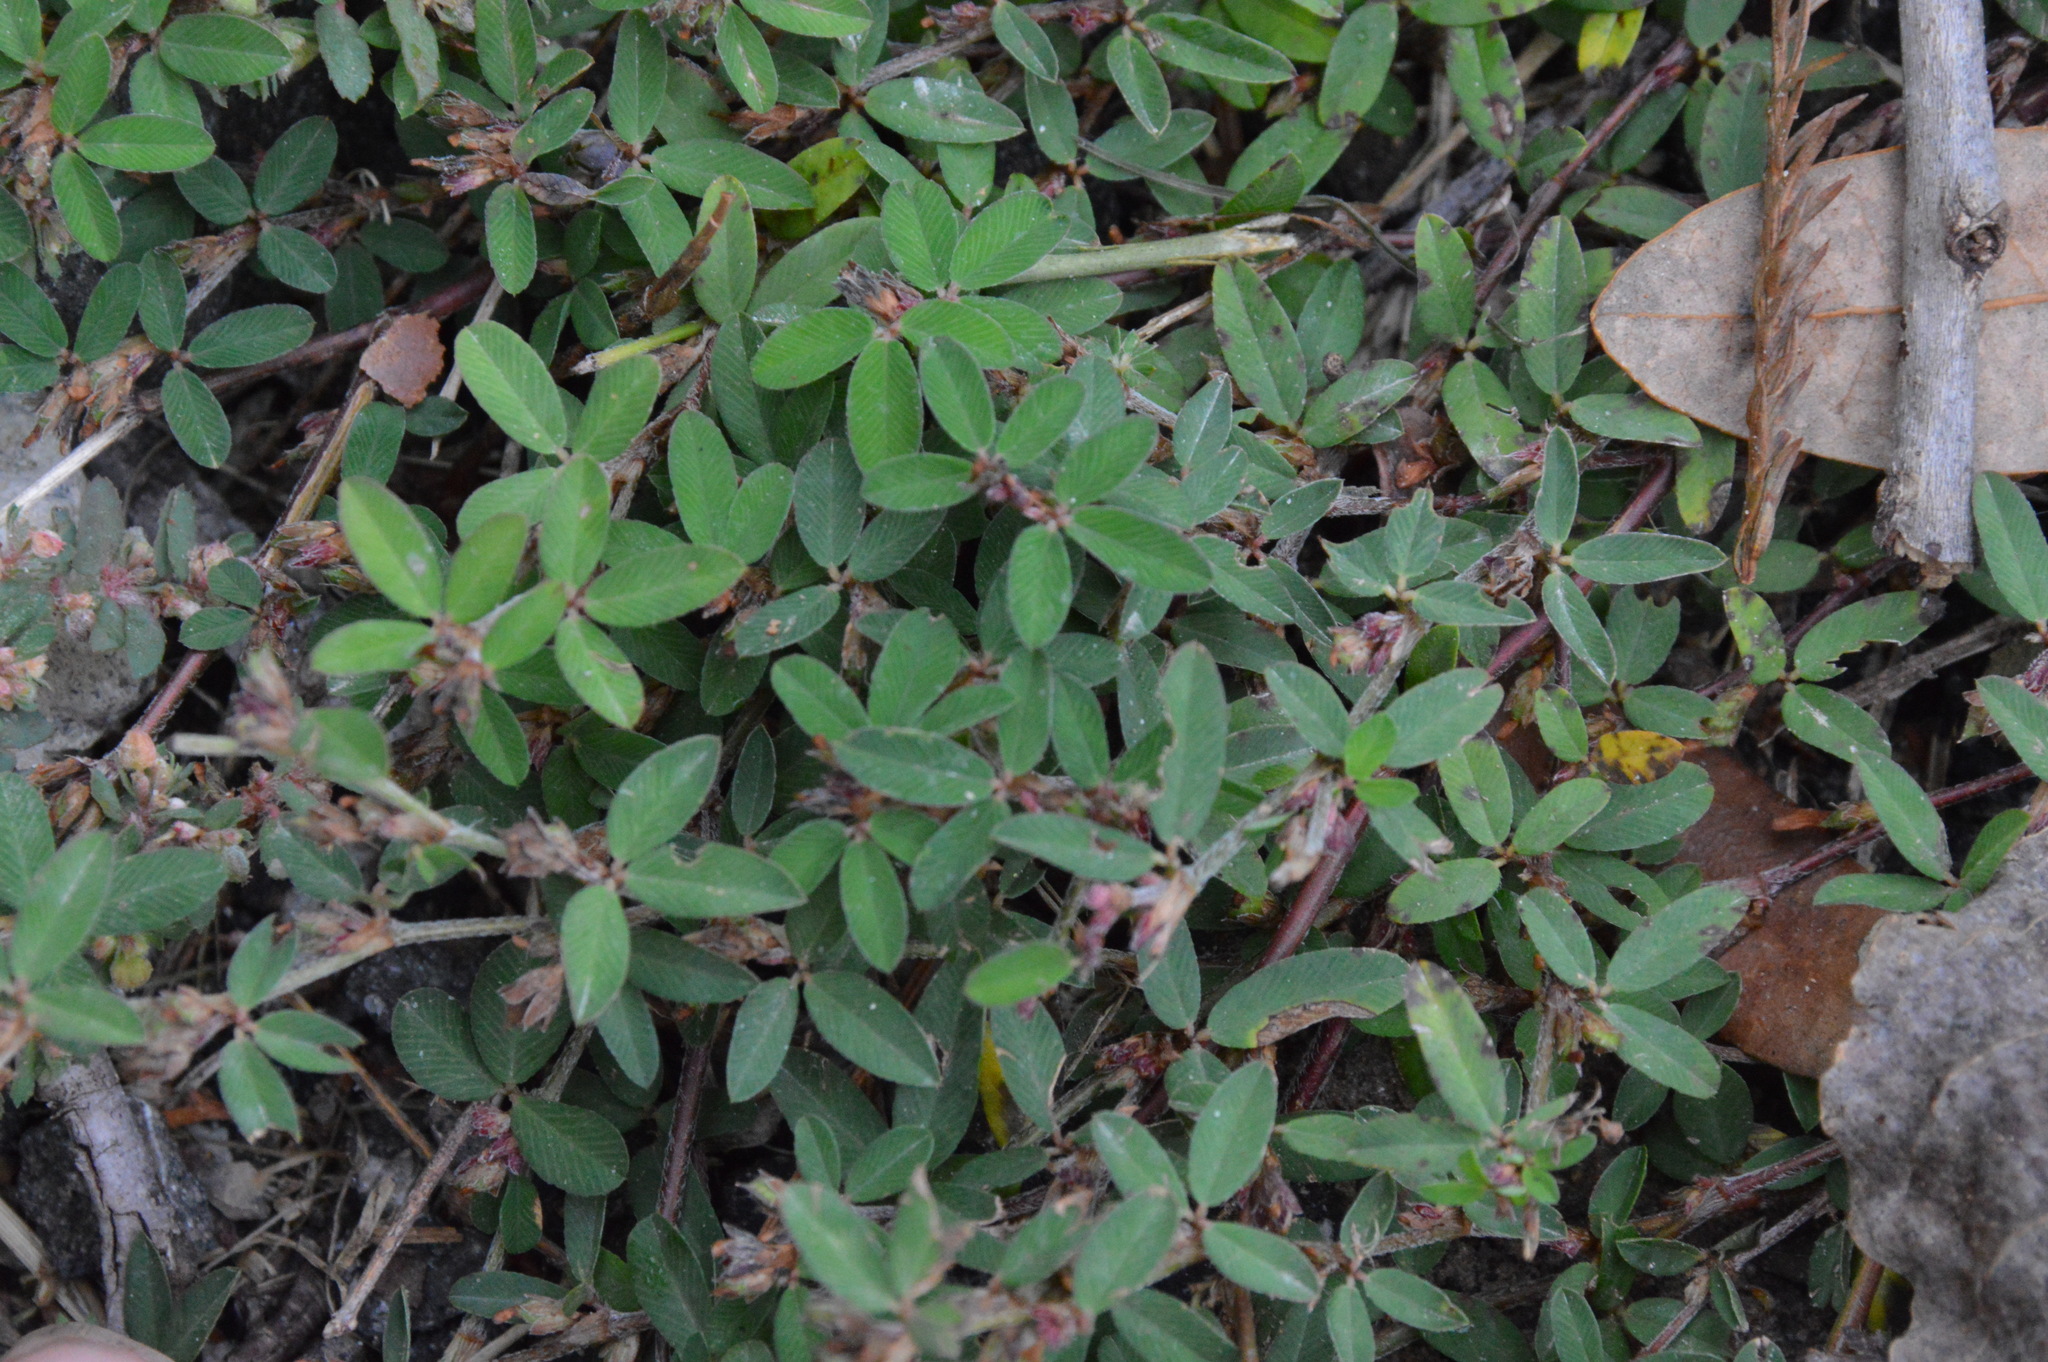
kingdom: Plantae
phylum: Tracheophyta
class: Magnoliopsida
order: Fabales
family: Fabaceae
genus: Kummerowia
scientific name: Kummerowia striata
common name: Japanese clover
